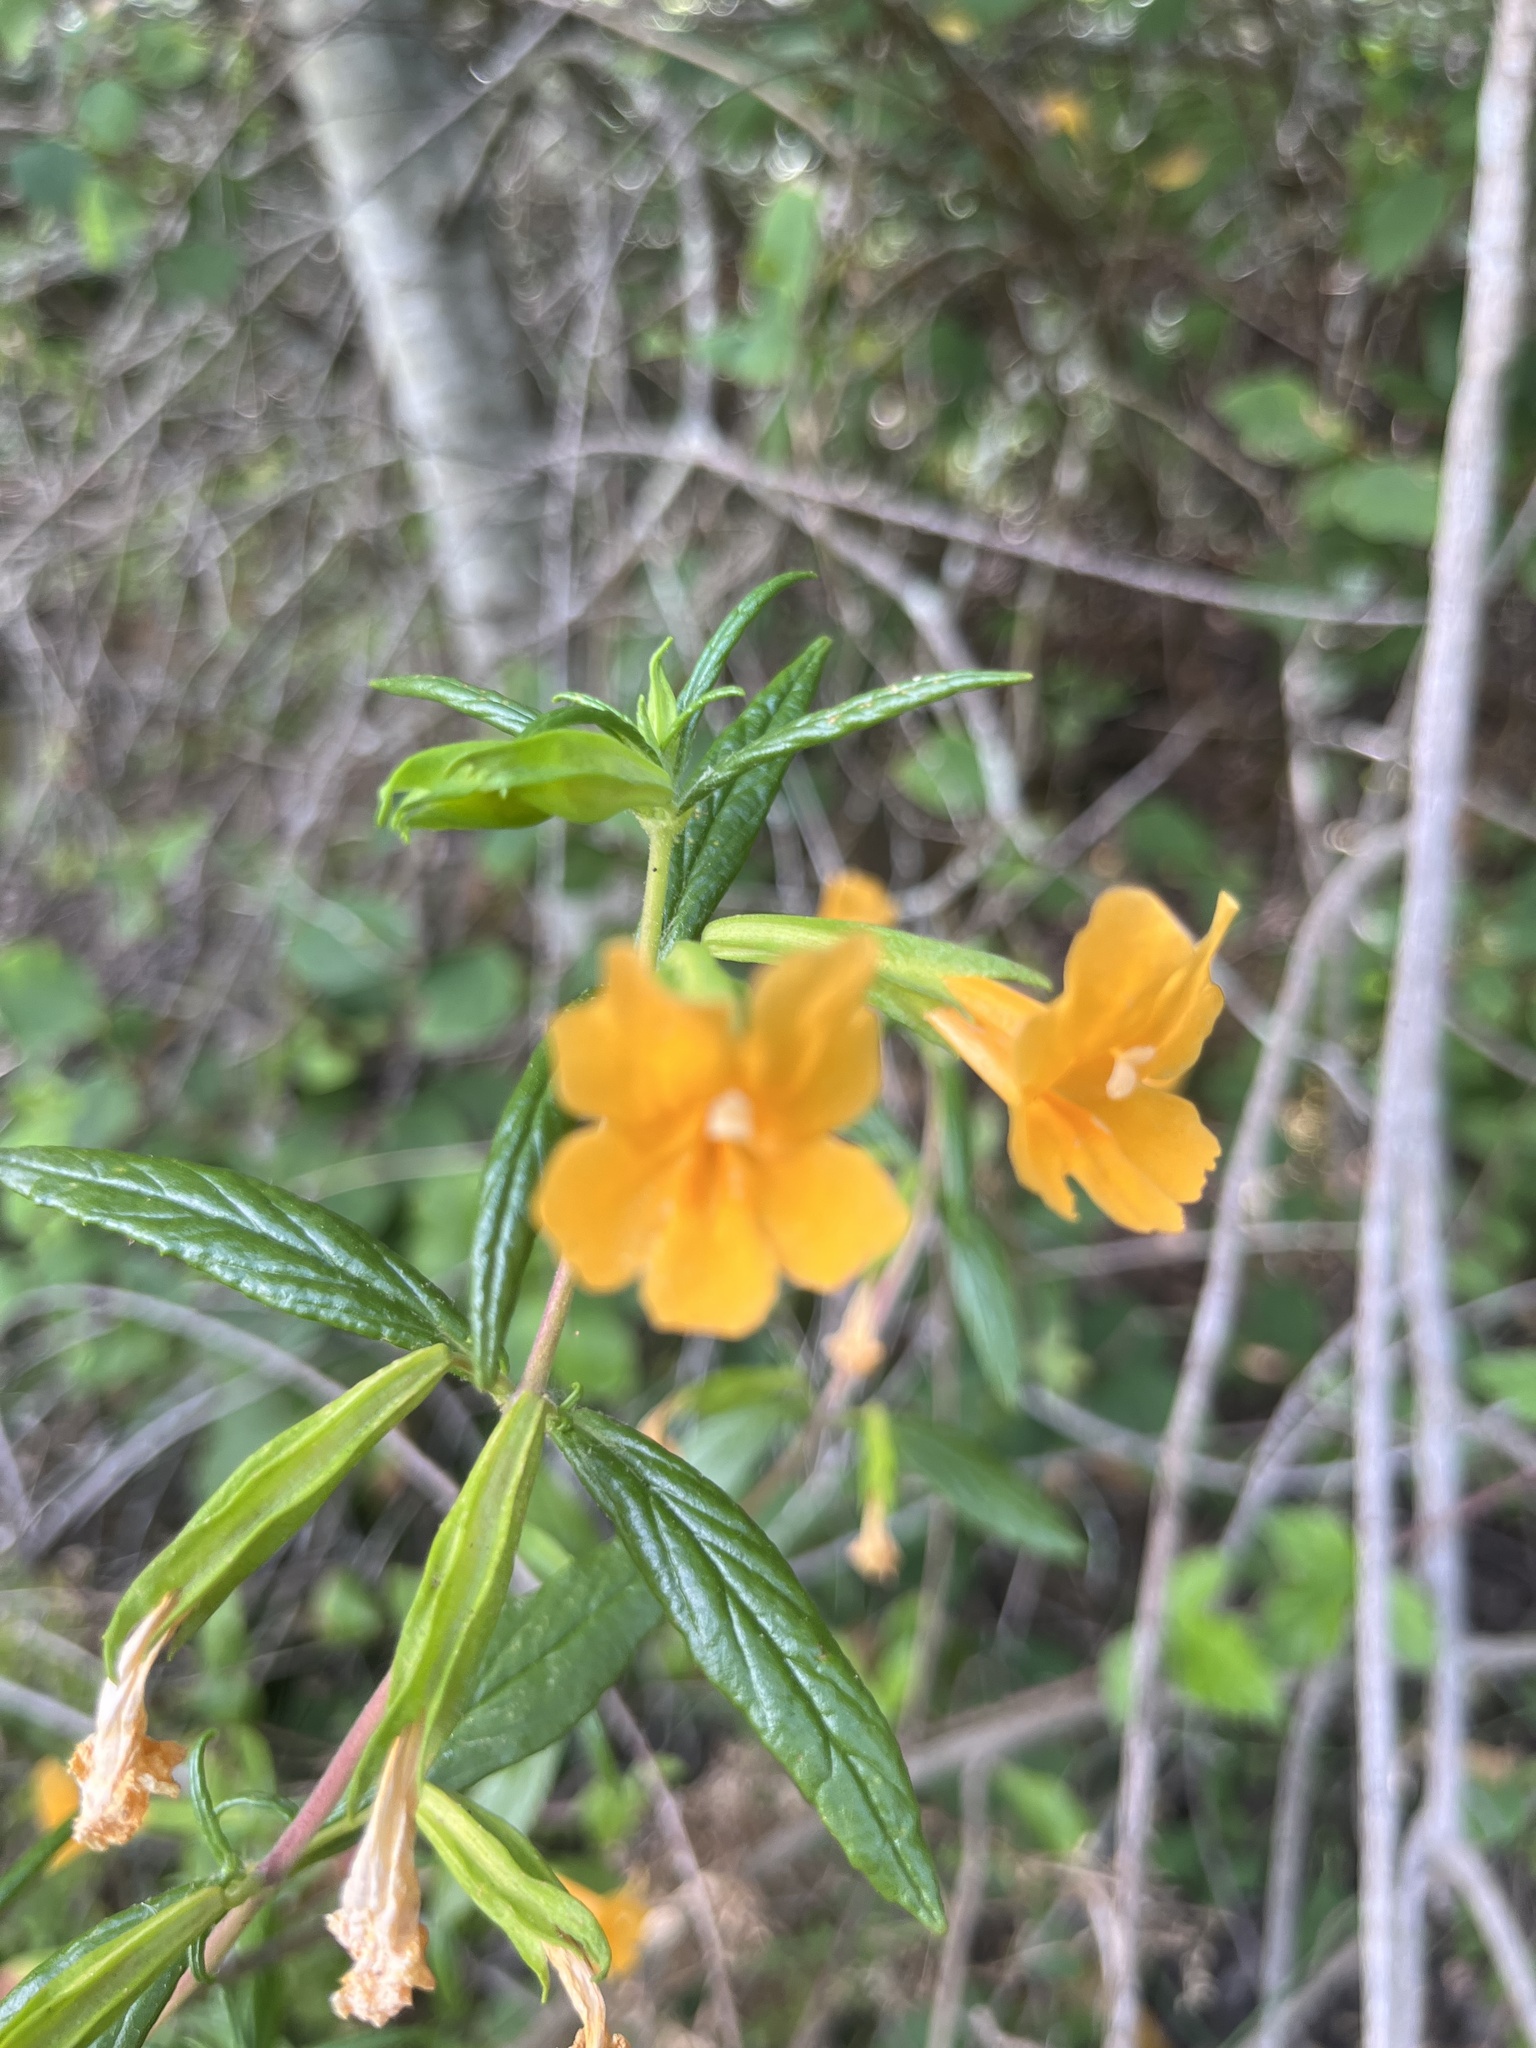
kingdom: Plantae
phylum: Tracheophyta
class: Magnoliopsida
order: Lamiales
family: Phrymaceae
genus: Diplacus
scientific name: Diplacus aurantiacus
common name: Bush monkey-flower
